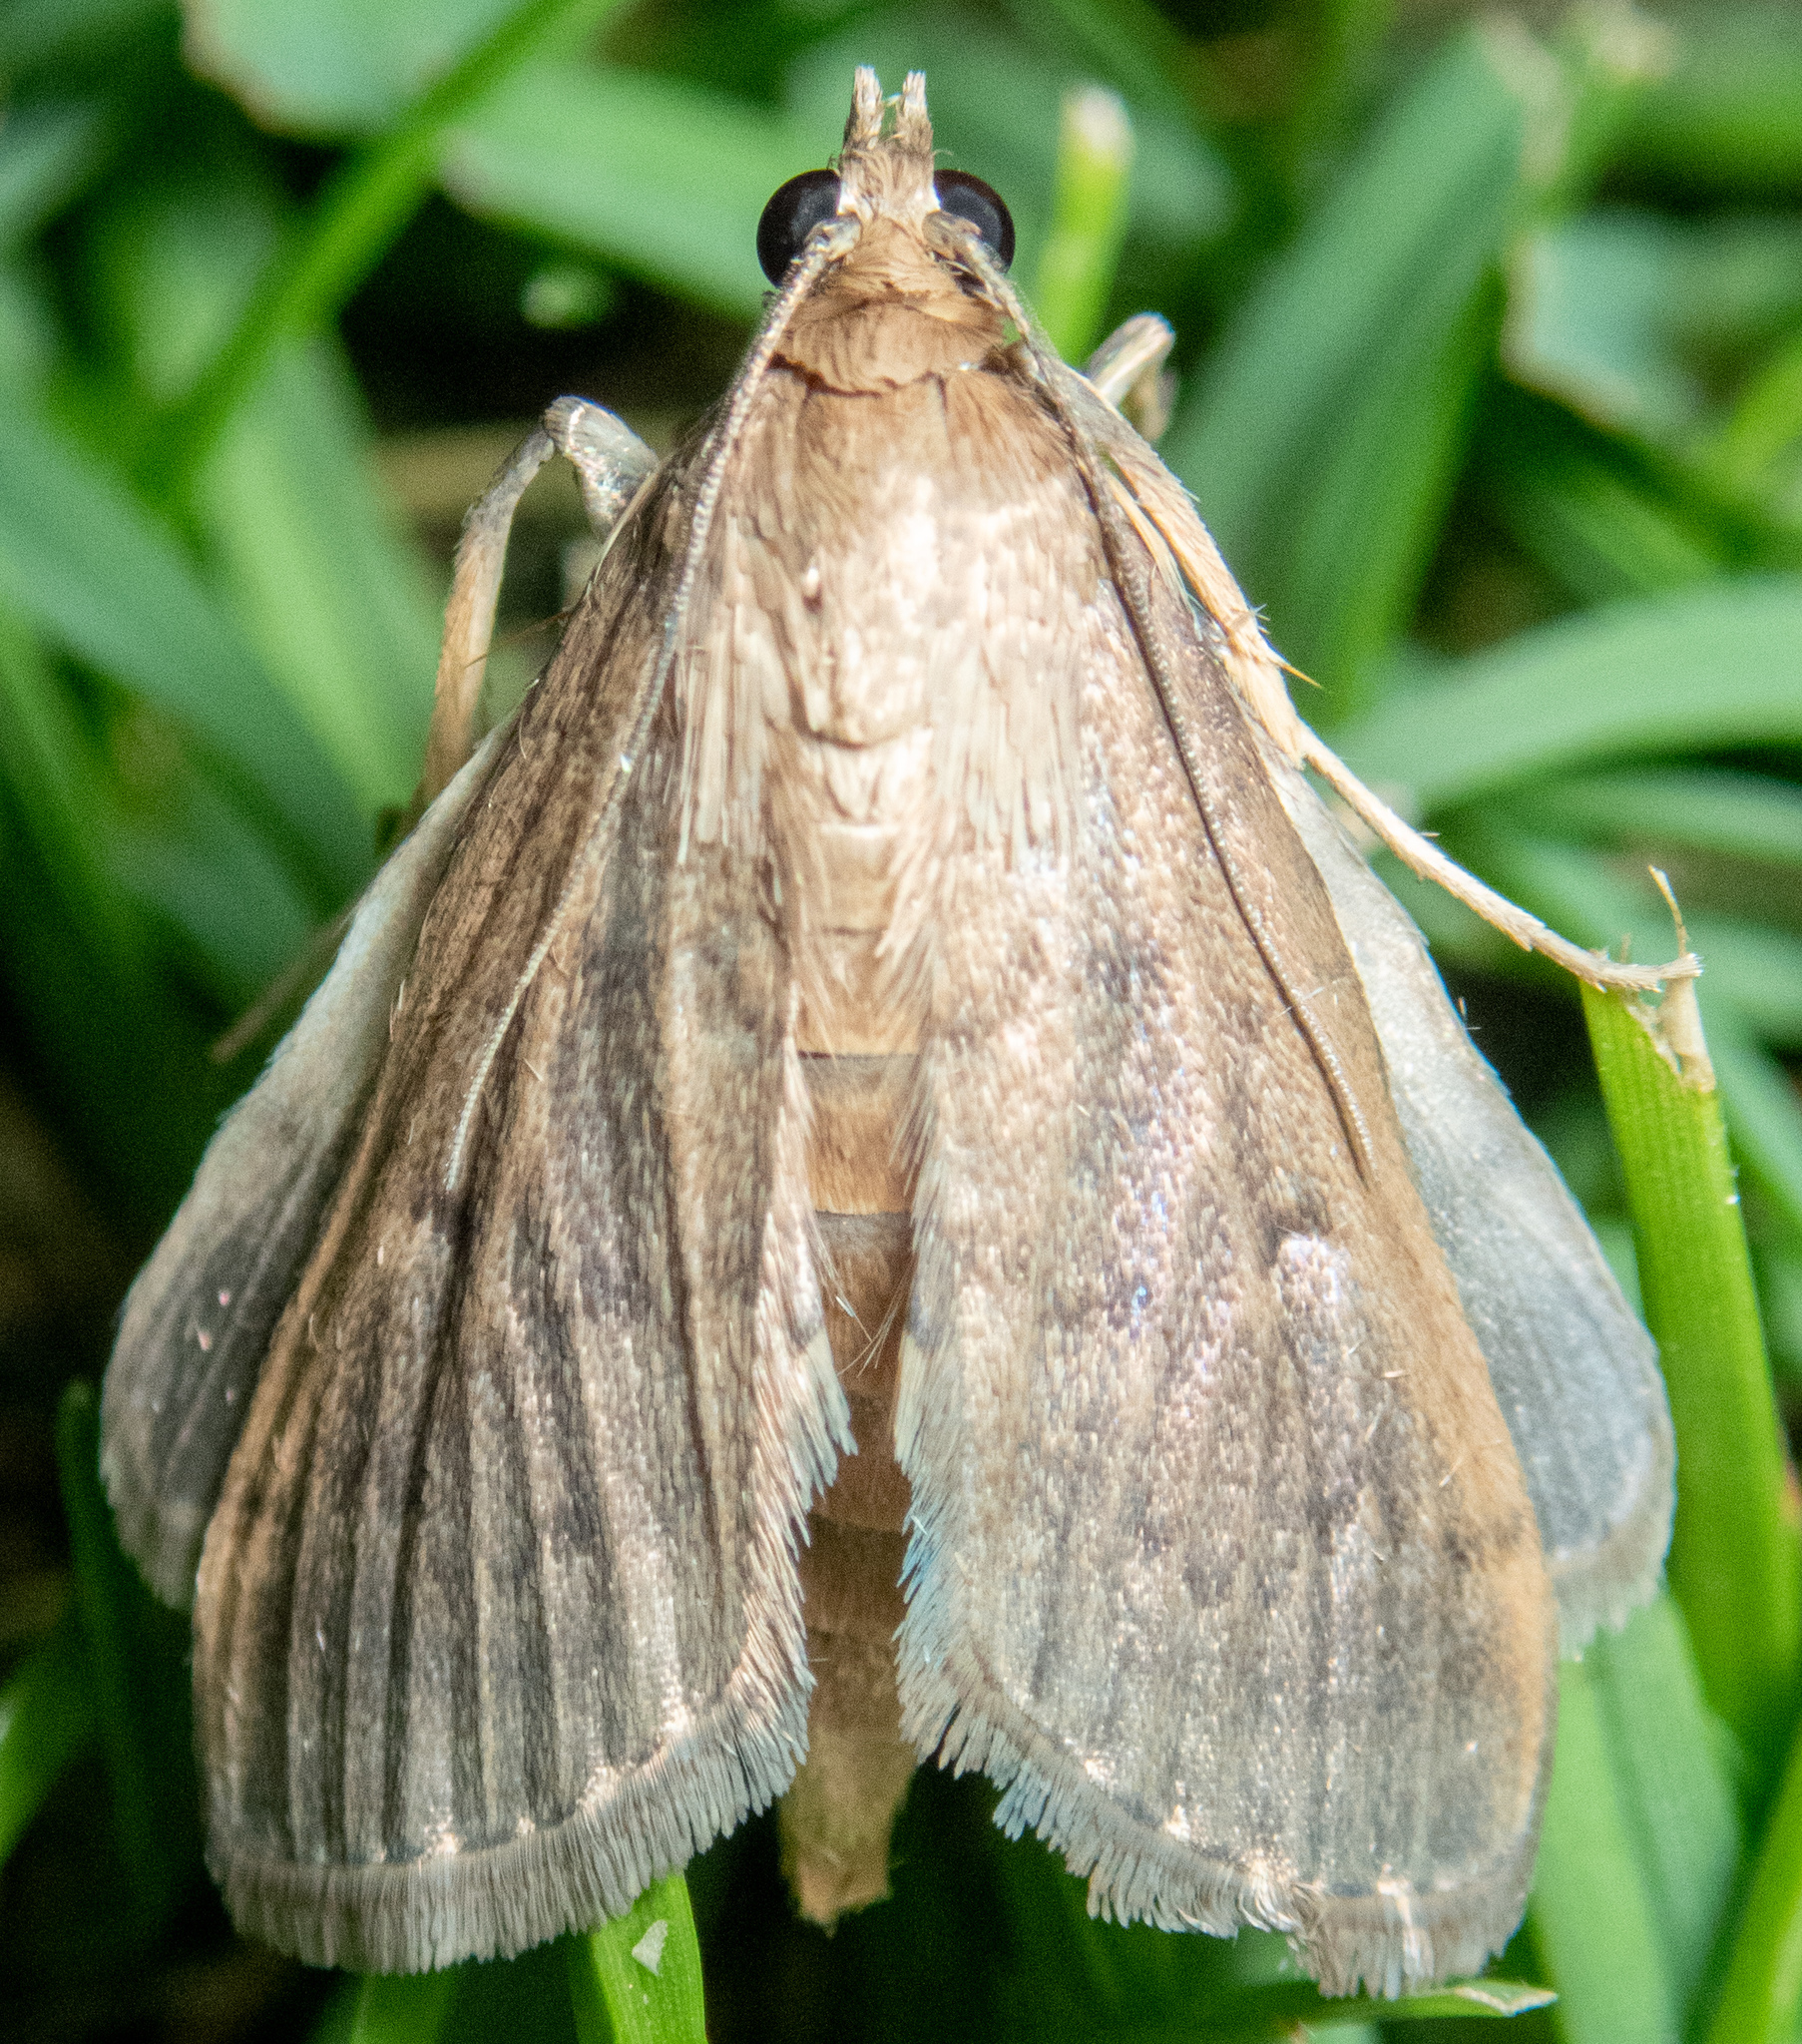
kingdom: Animalia
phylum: Arthropoda
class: Insecta
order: Lepidoptera
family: Crambidae
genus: Herpetogramma
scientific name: Herpetogramma licarsisalis
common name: Grass webworm
